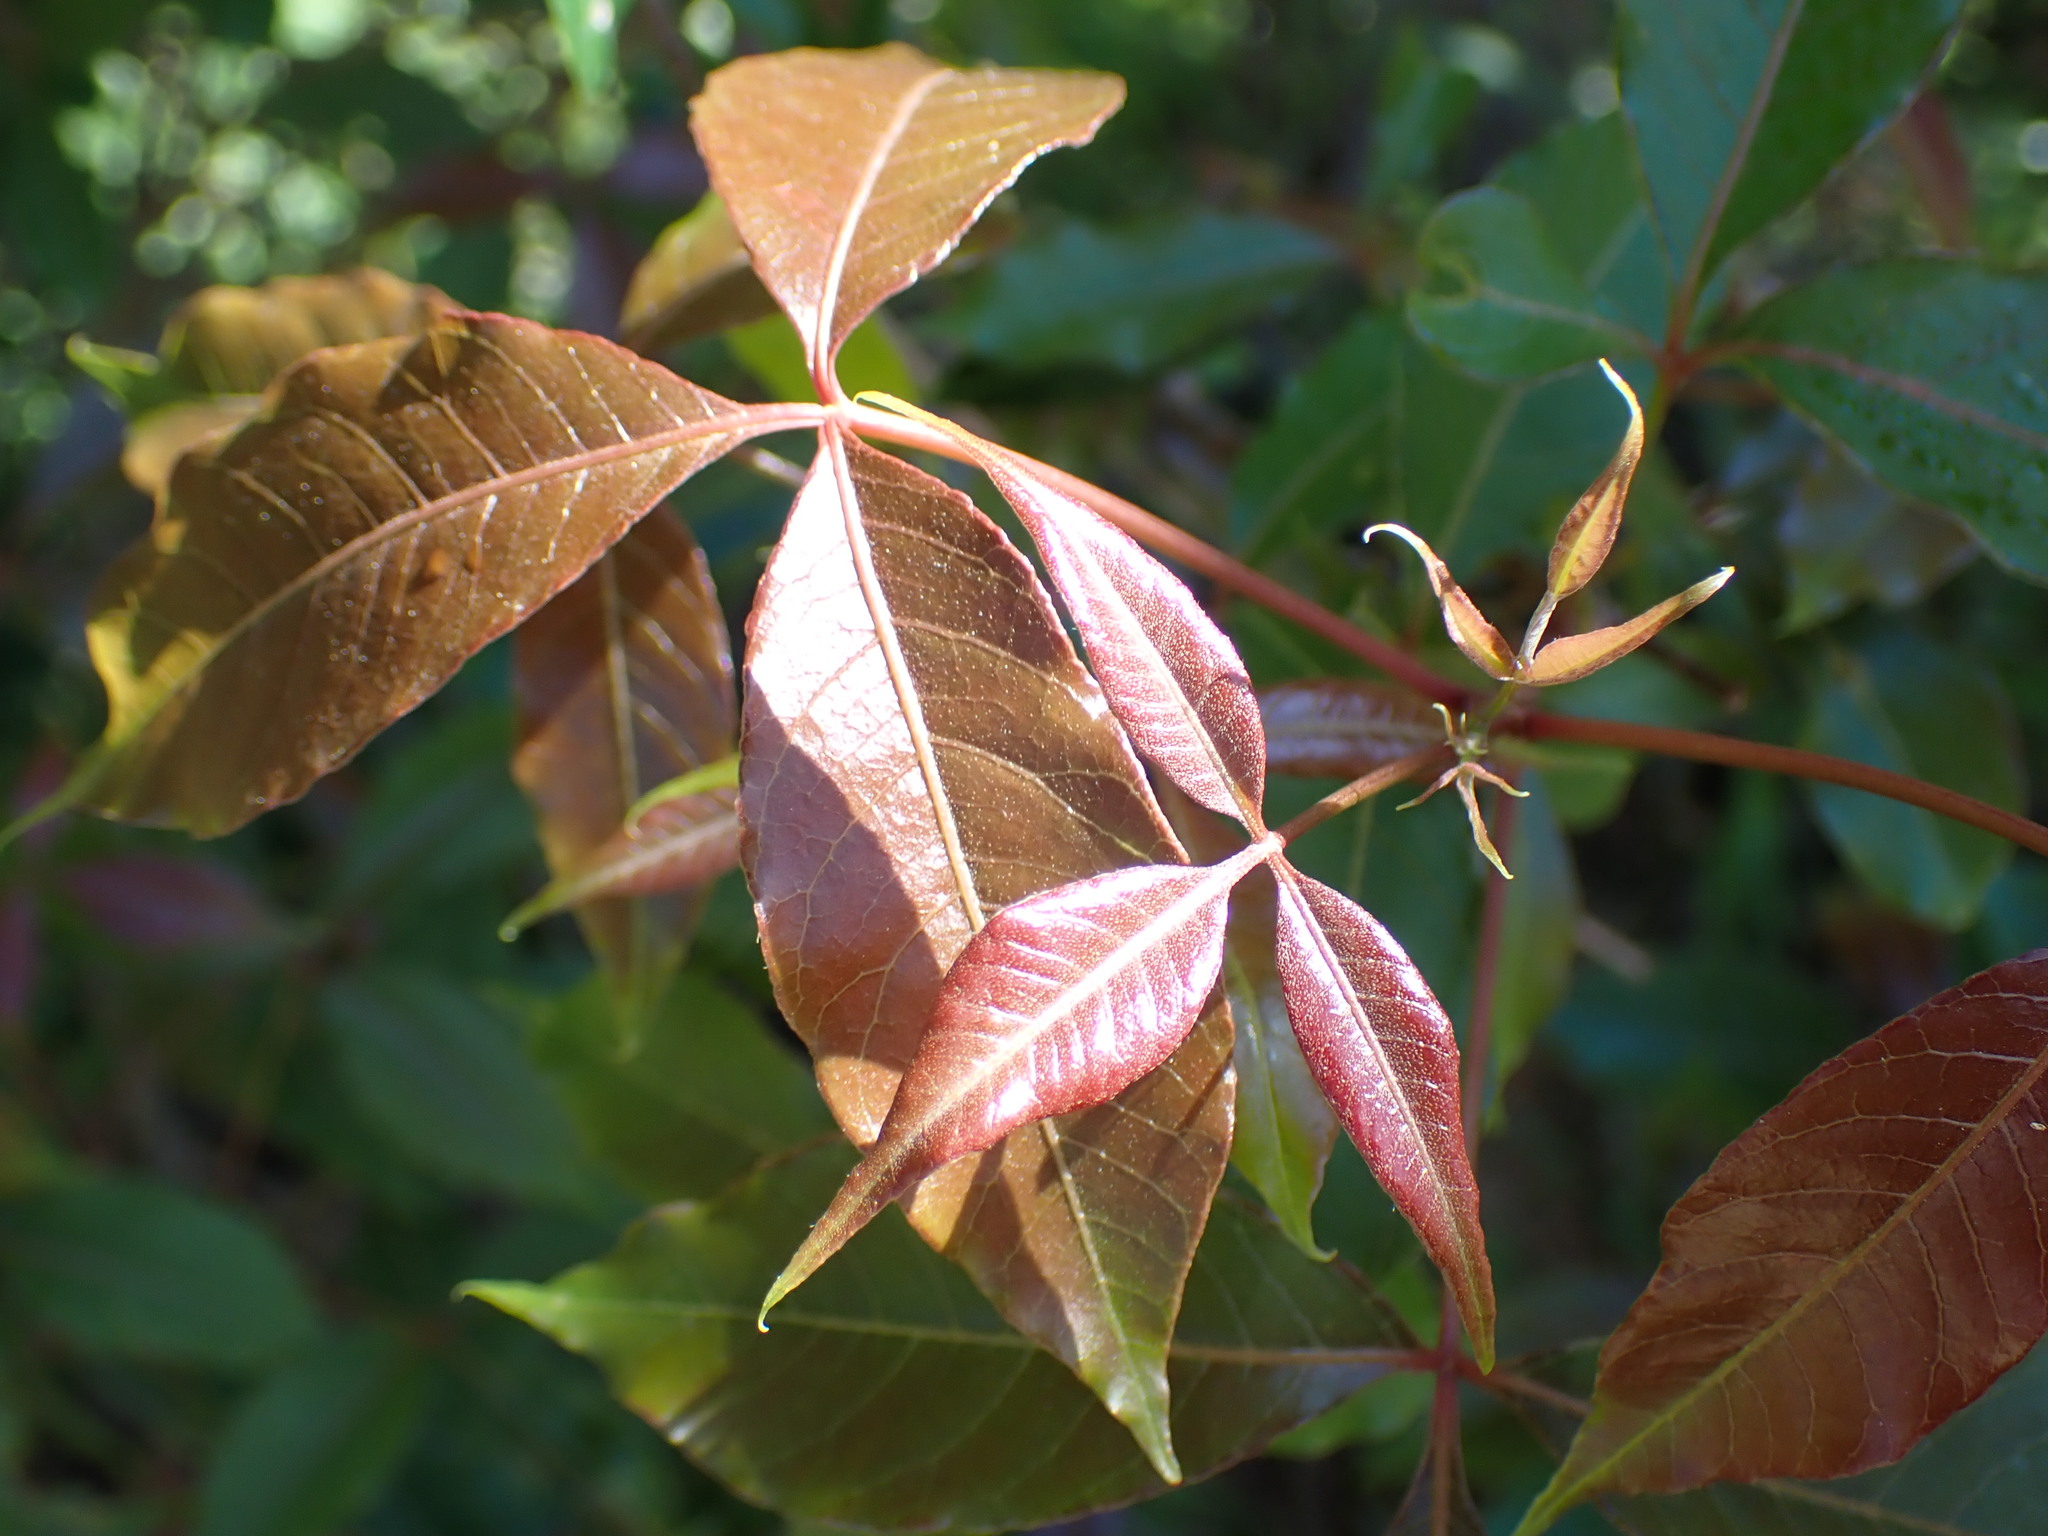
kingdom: Plantae
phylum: Tracheophyta
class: Magnoliopsida
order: Sapindales
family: Anacardiaceae
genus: Searsia
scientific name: Searsia chirindensis
